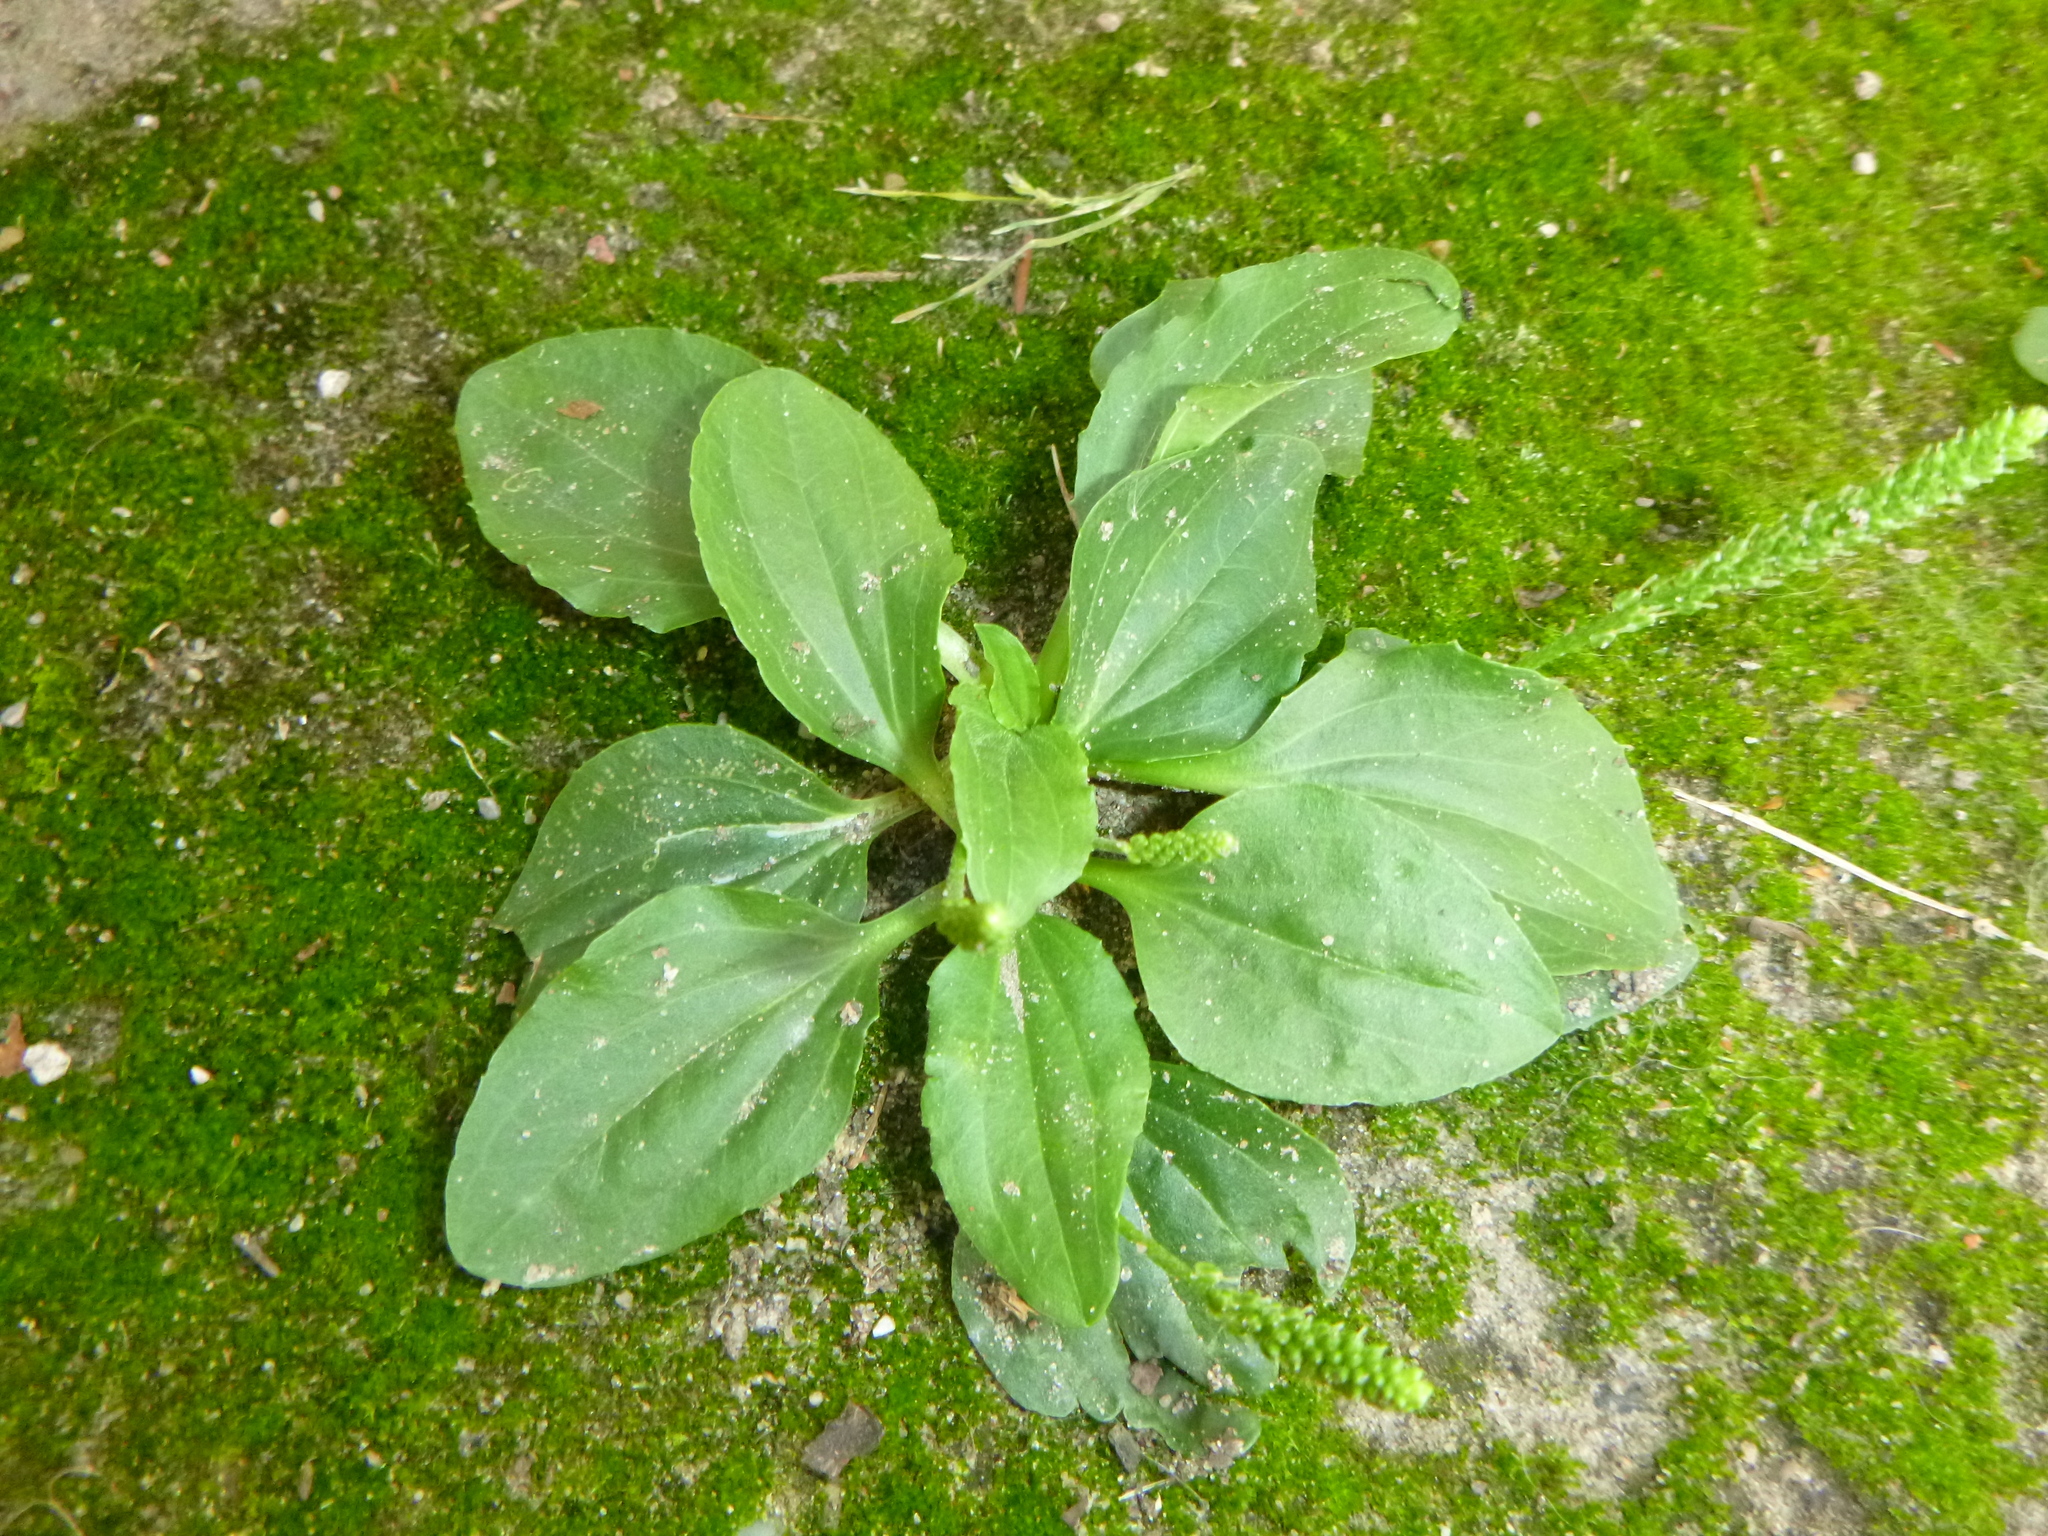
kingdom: Plantae
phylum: Tracheophyta
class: Magnoliopsida
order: Lamiales
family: Plantaginaceae
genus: Plantago
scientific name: Plantago major
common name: Common plantain
